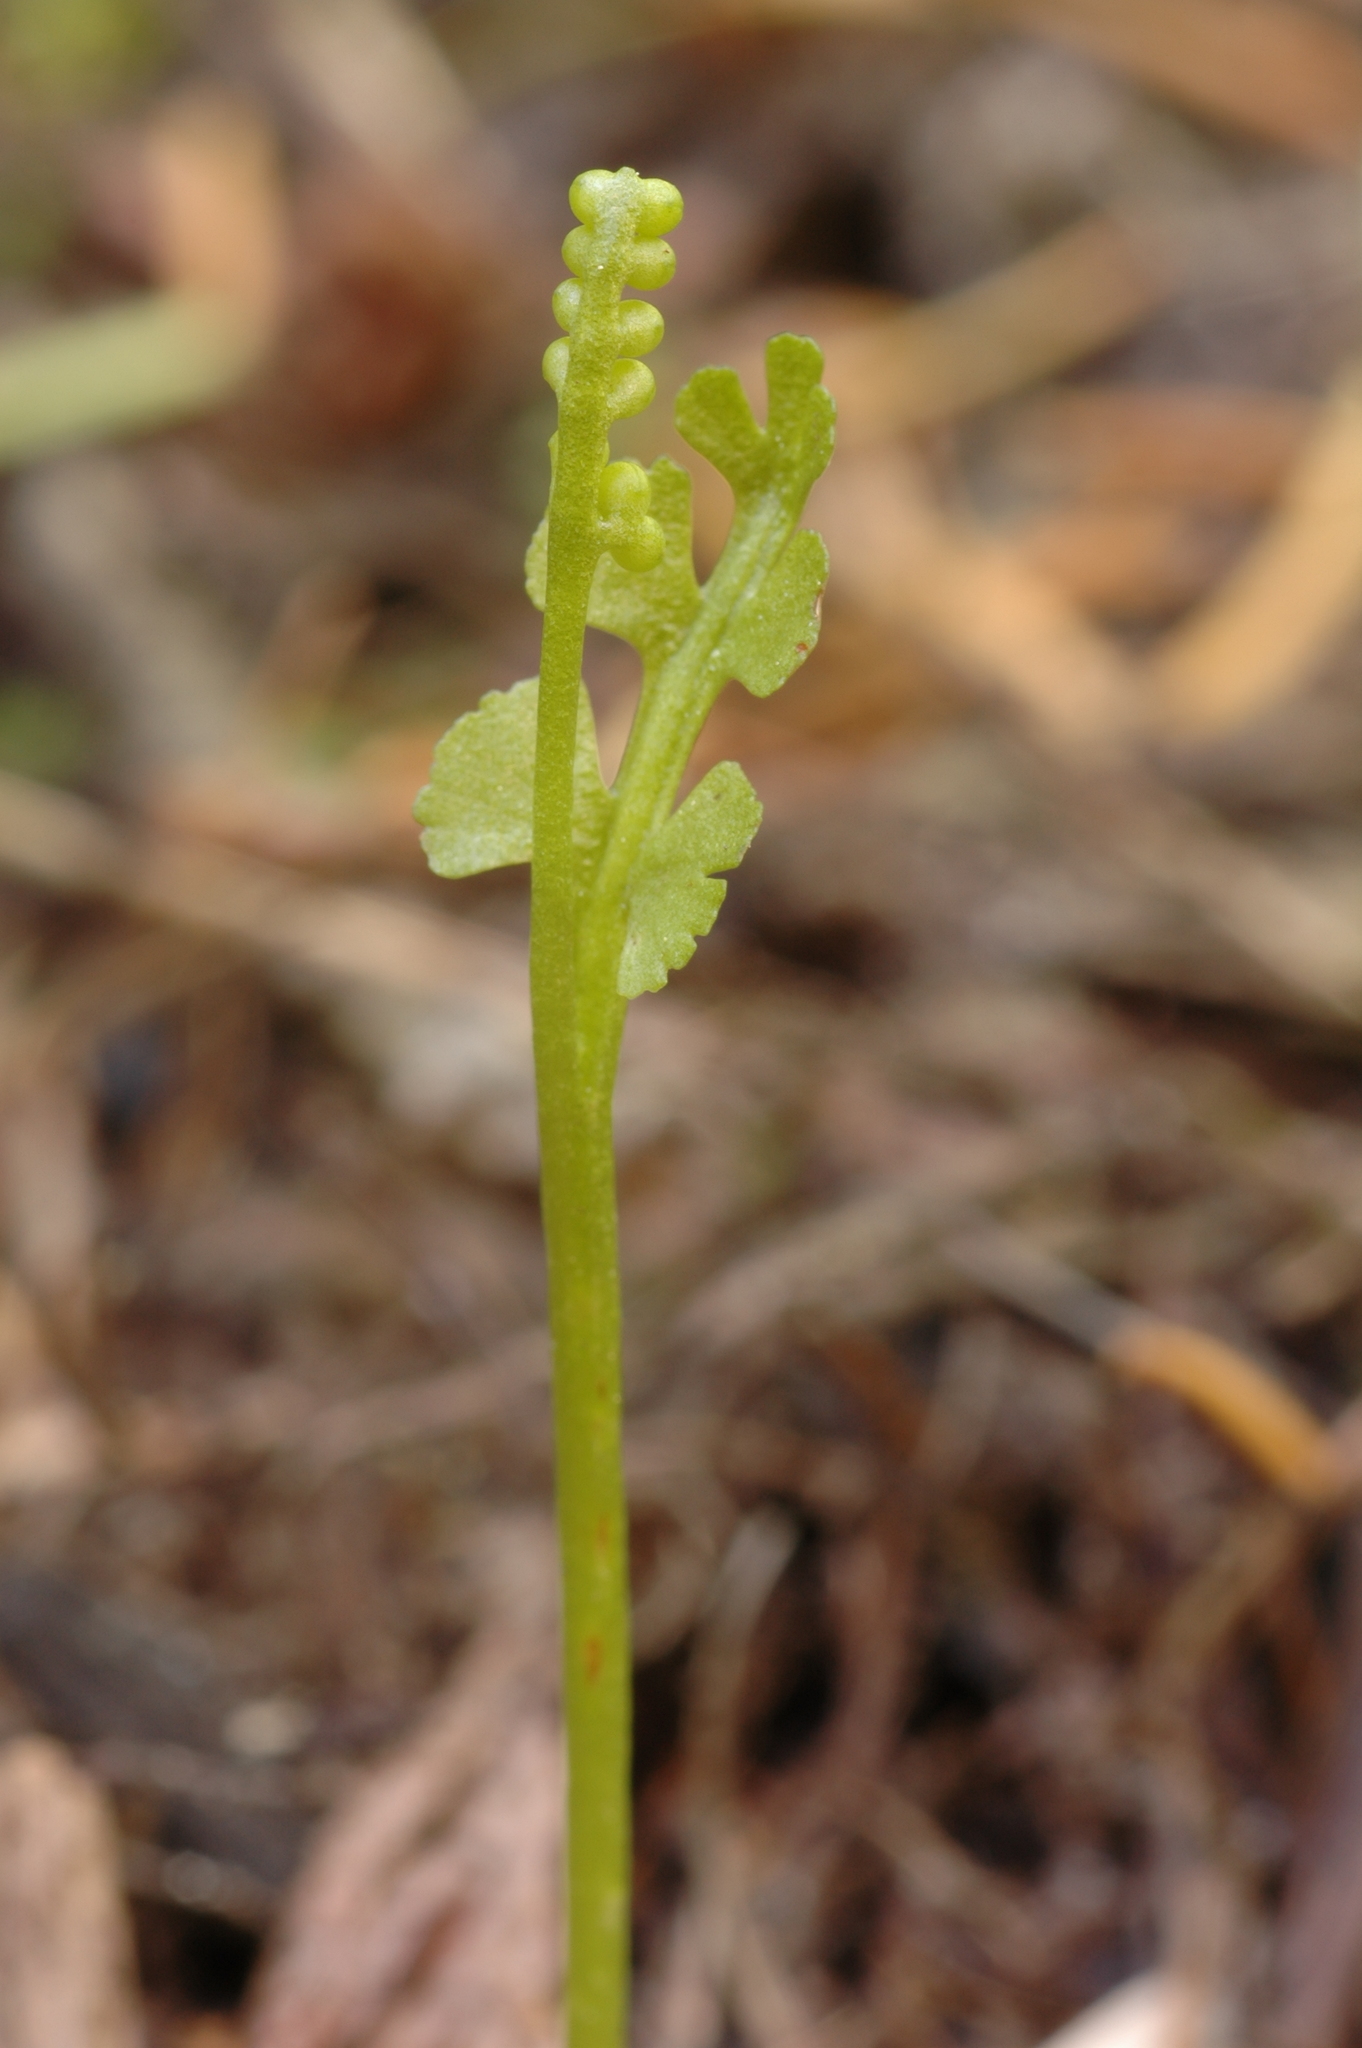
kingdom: Plantae
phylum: Tracheophyta
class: Polypodiopsida
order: Ophioglossales
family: Ophioglossaceae
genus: Botrychium
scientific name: Botrychium crenulatum
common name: Crenulate moonwort
